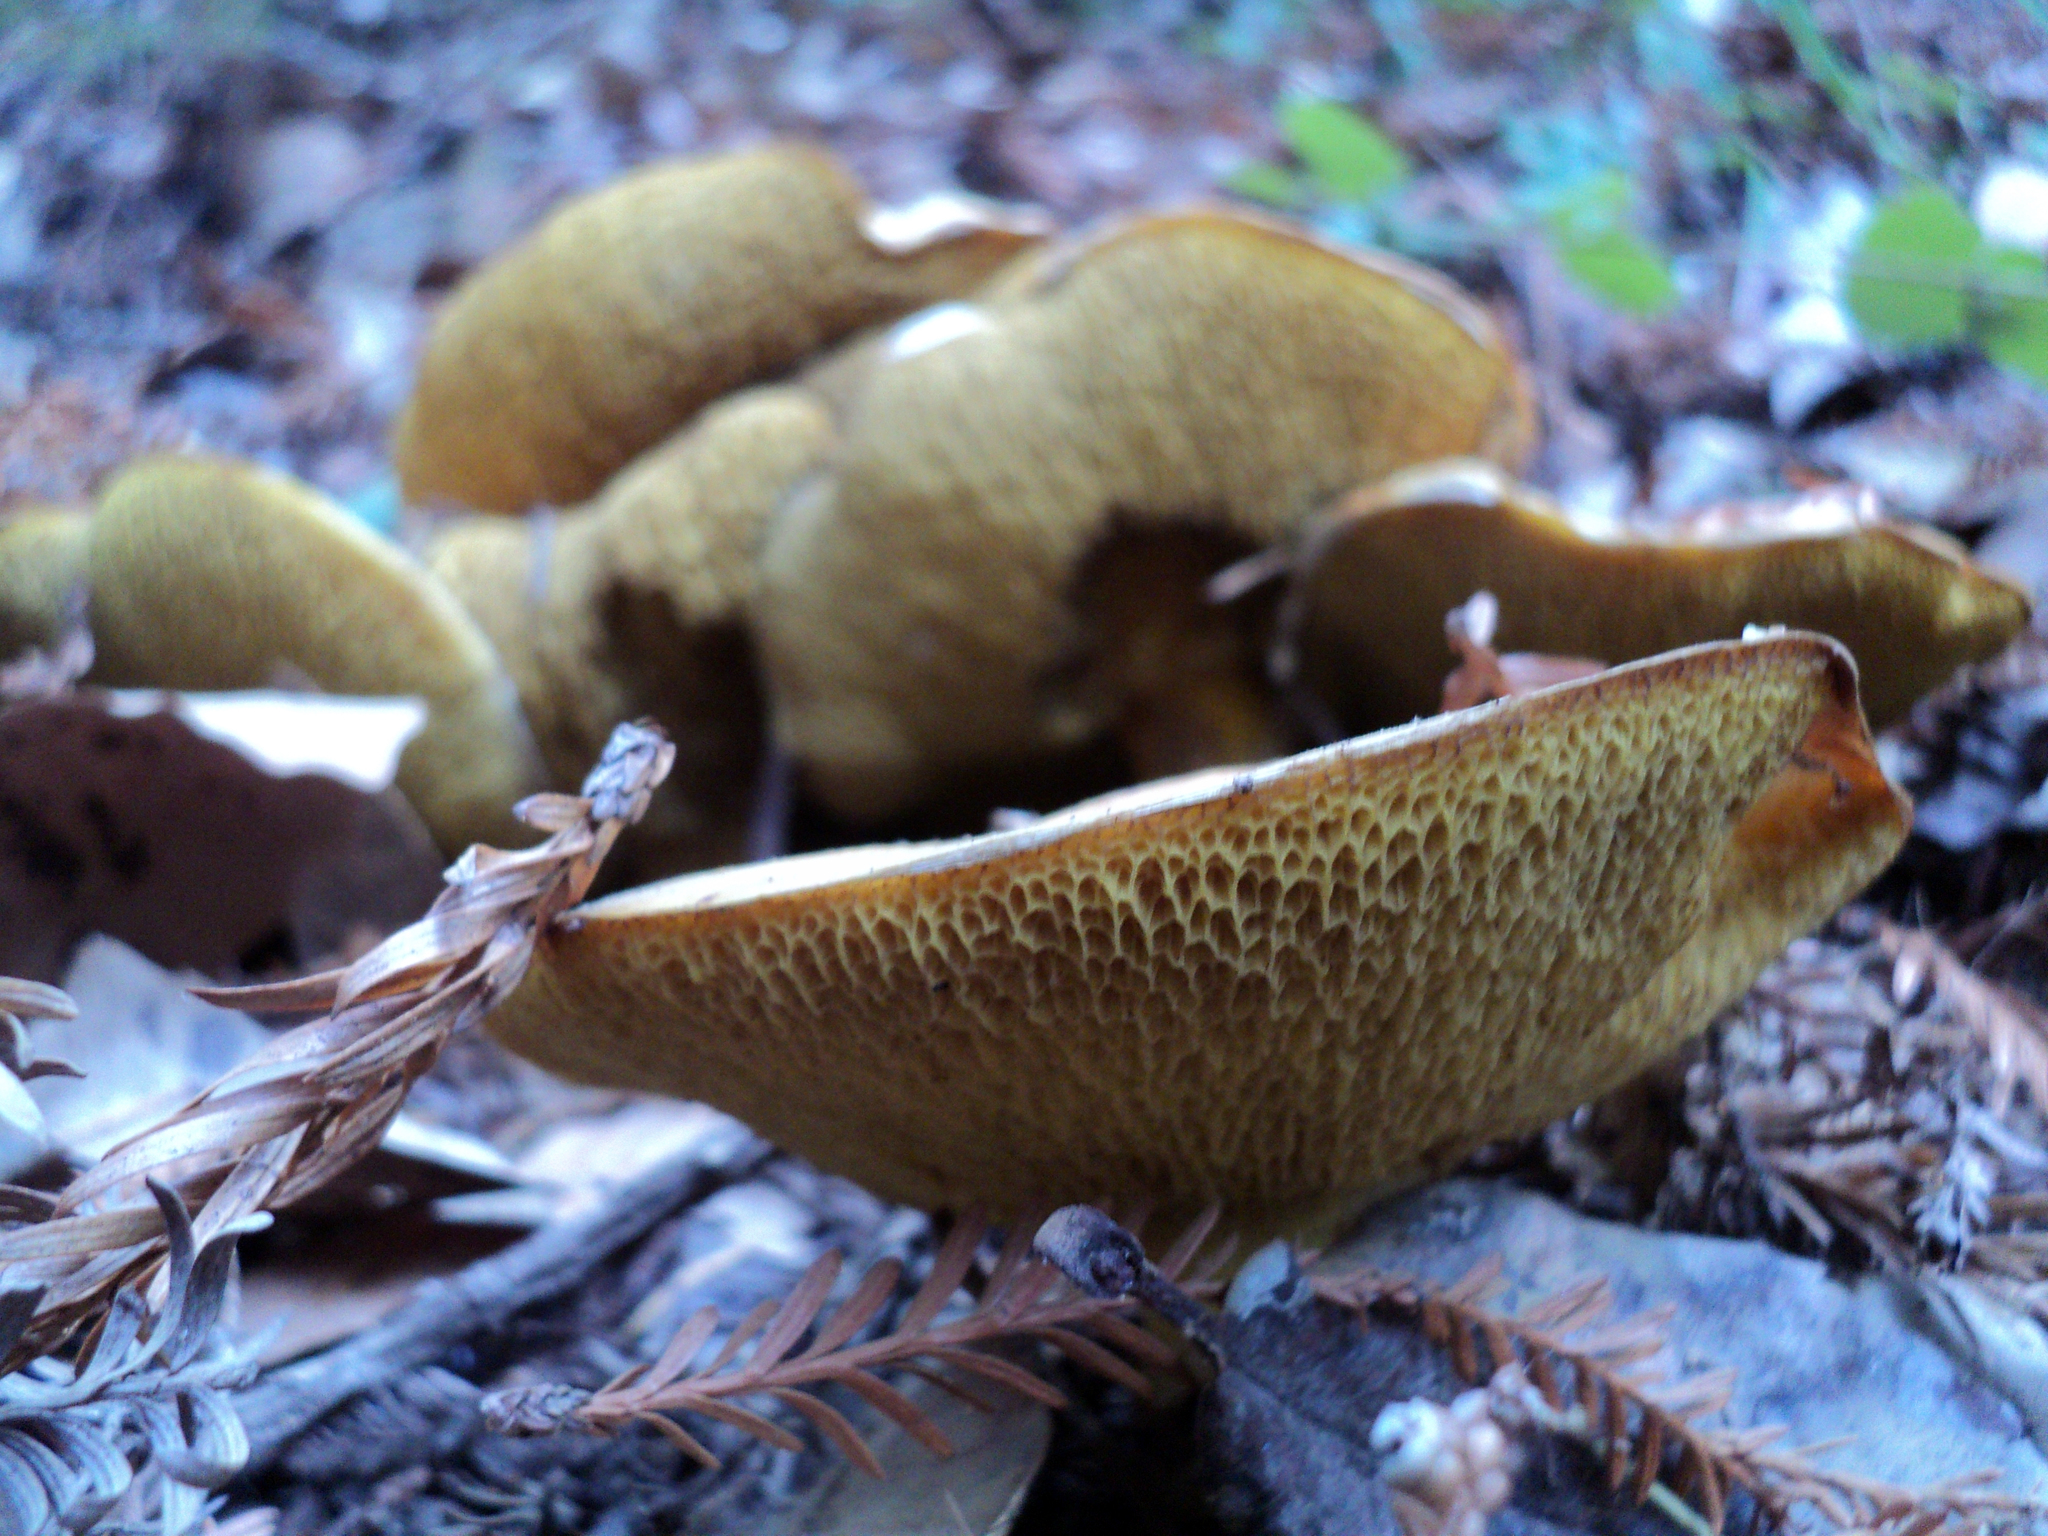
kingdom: Fungi
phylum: Basidiomycota
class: Agaricomycetes
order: Boletales
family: Suillaceae
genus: Suillus
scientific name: Suillus caerulescens
